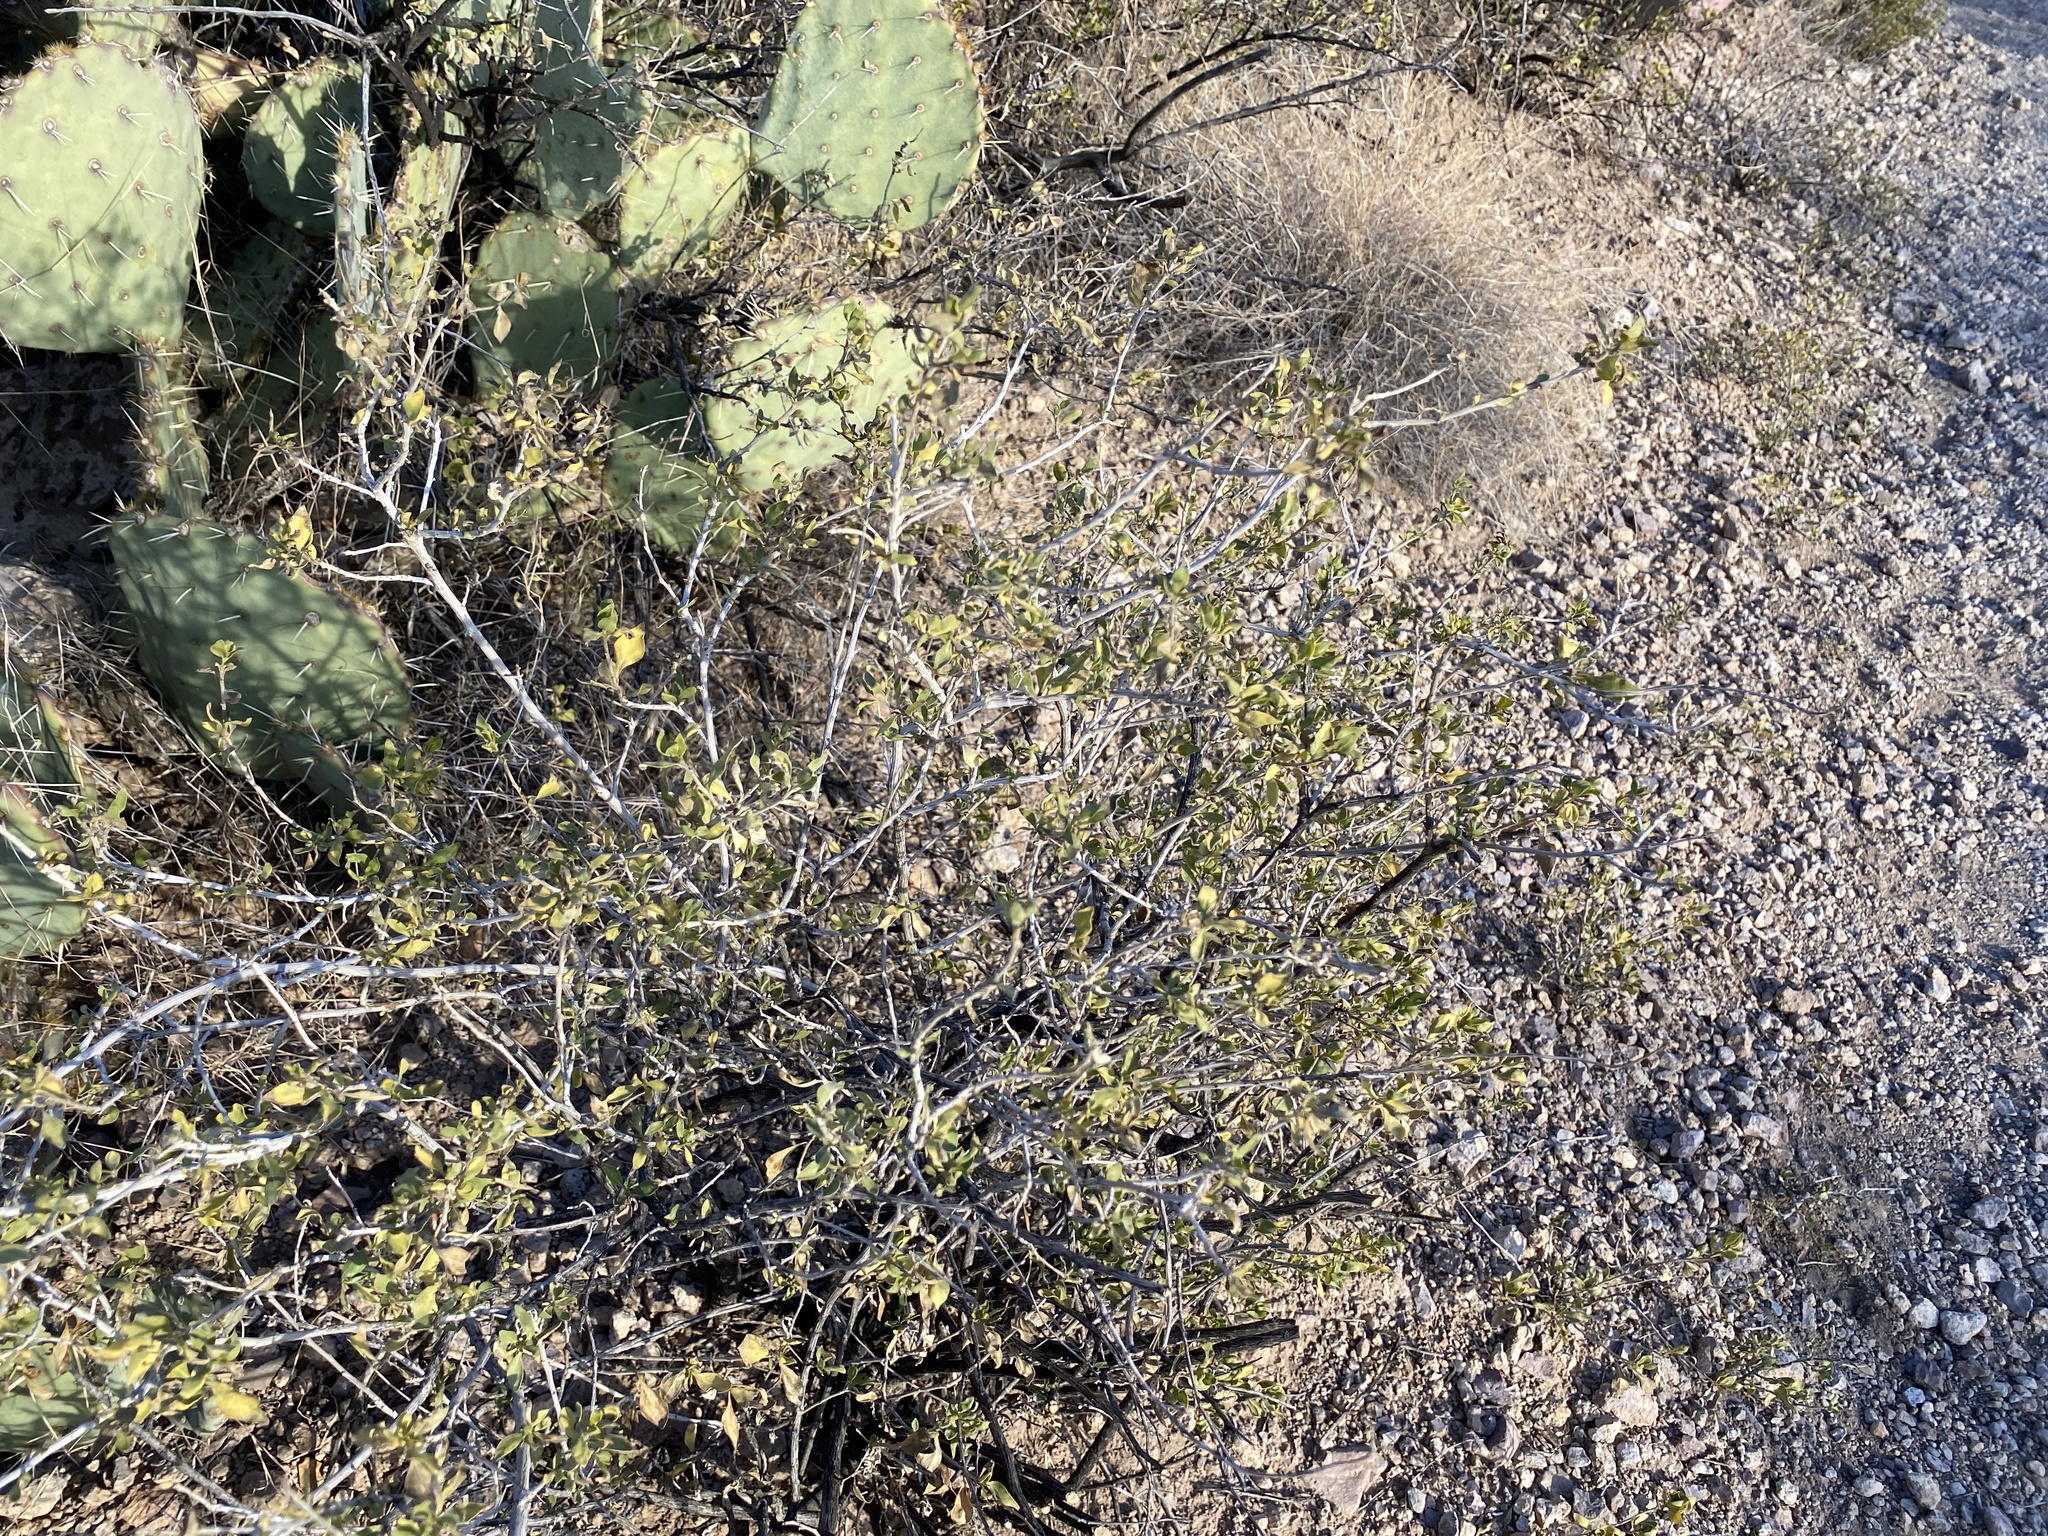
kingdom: Plantae
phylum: Tracheophyta
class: Magnoliopsida
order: Asterales
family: Asteraceae
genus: Flourensia
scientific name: Flourensia cernua
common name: Varnishbush
